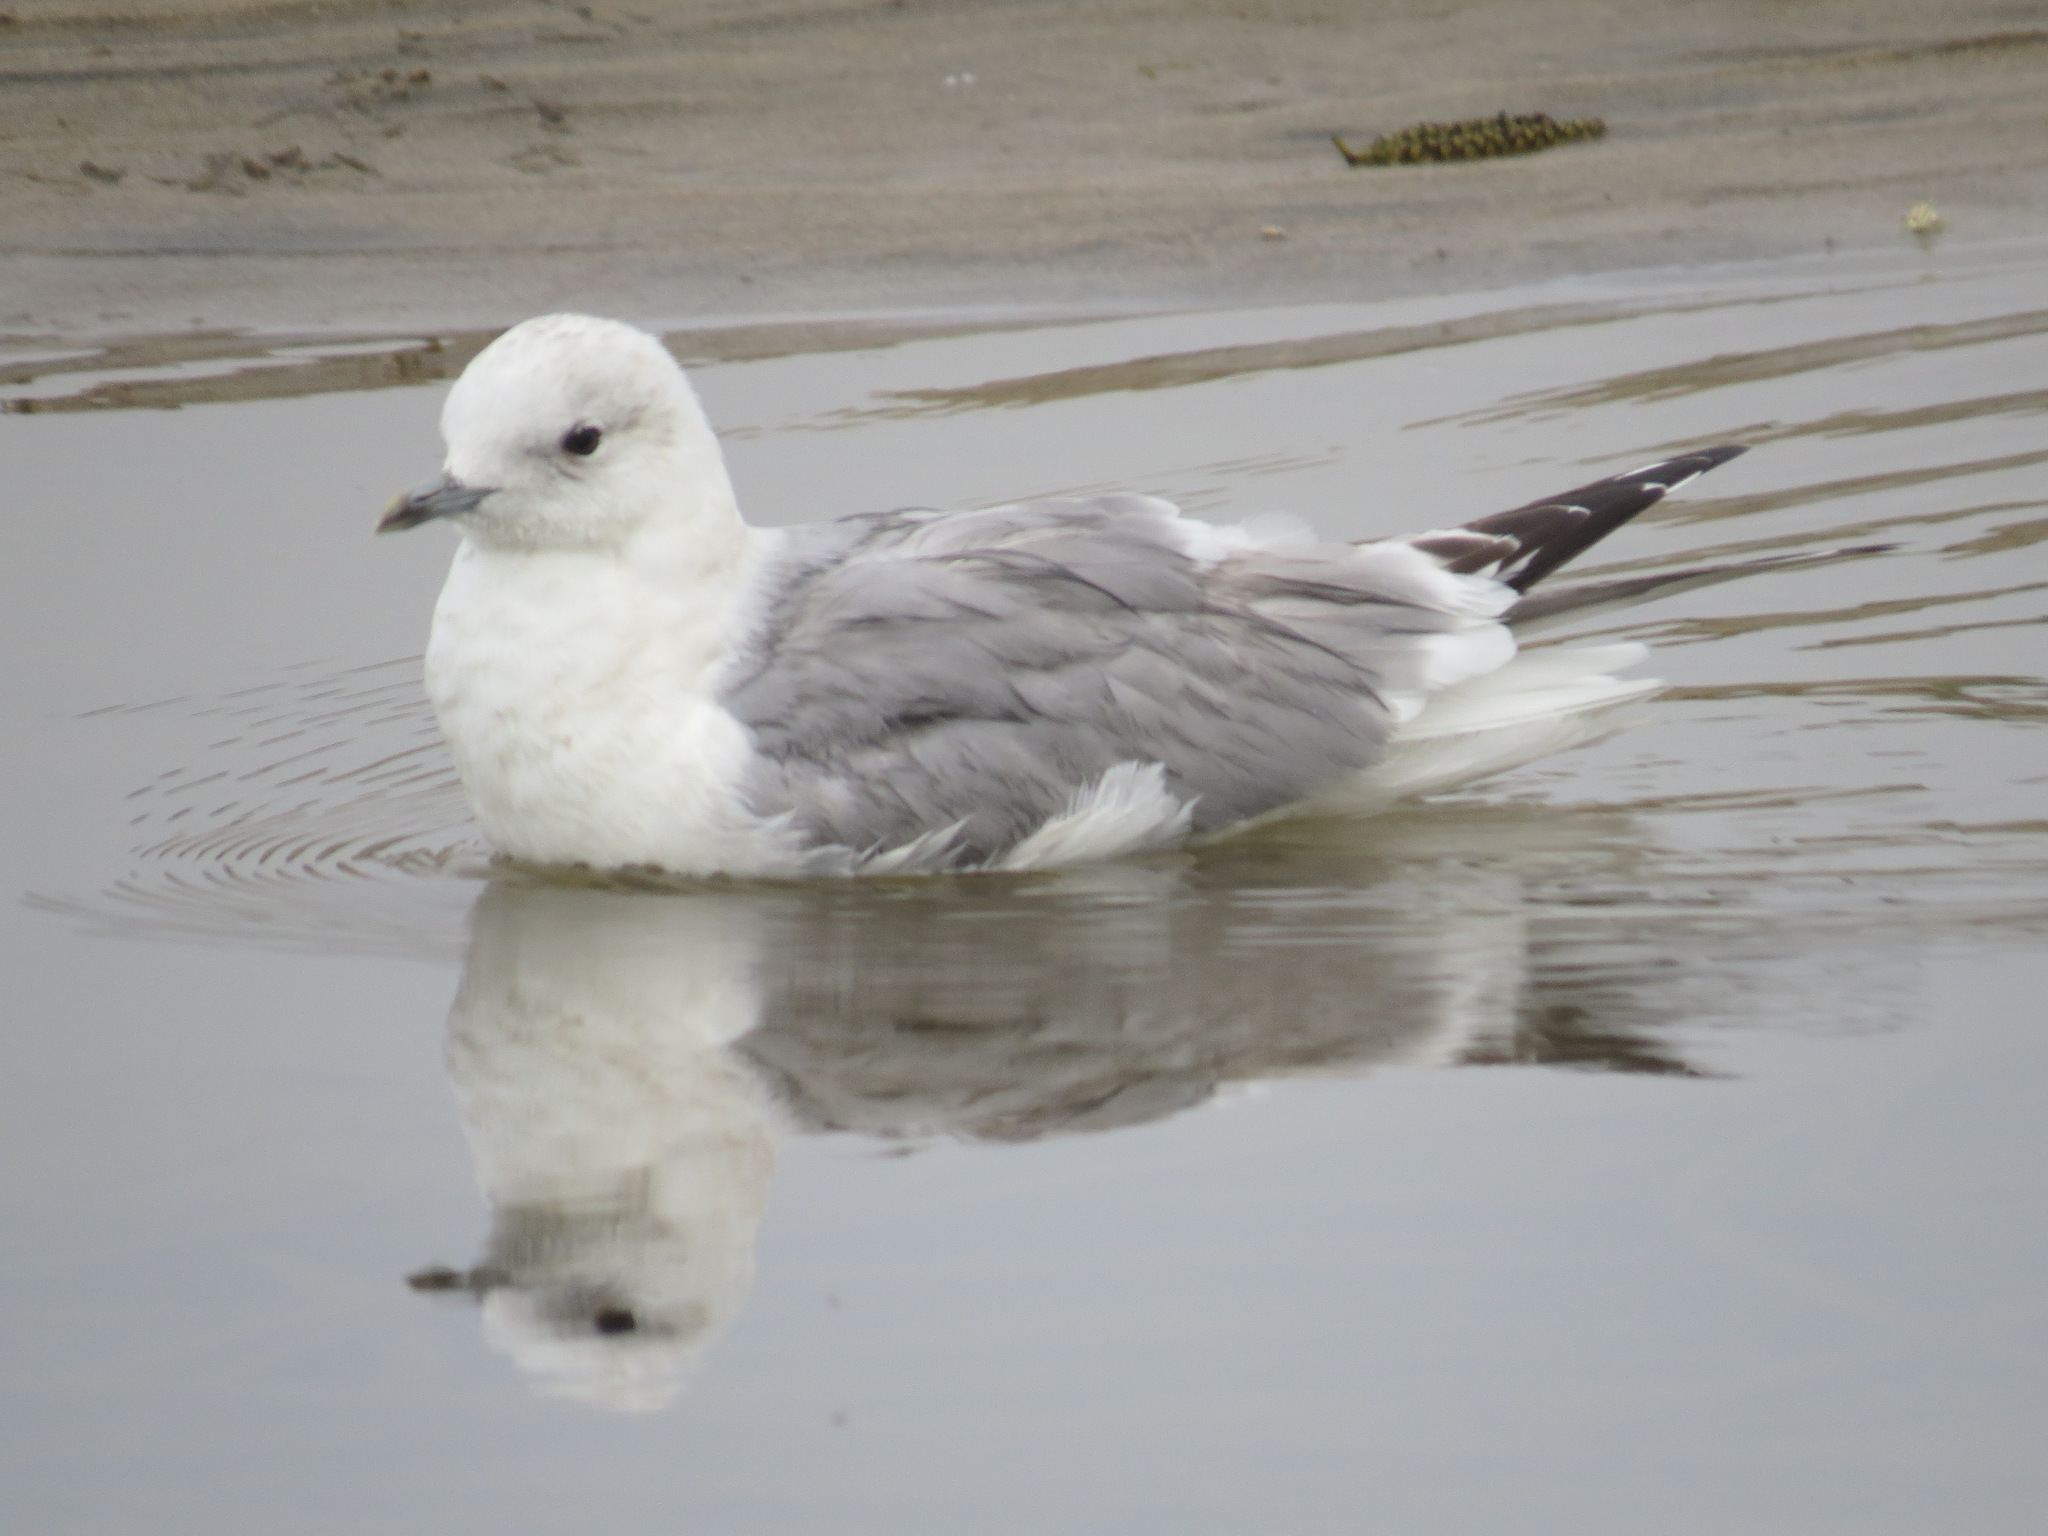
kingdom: Animalia
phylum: Chordata
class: Aves
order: Charadriiformes
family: Laridae
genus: Larus
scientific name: Larus brachyrhynchus
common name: Short-billed gull
